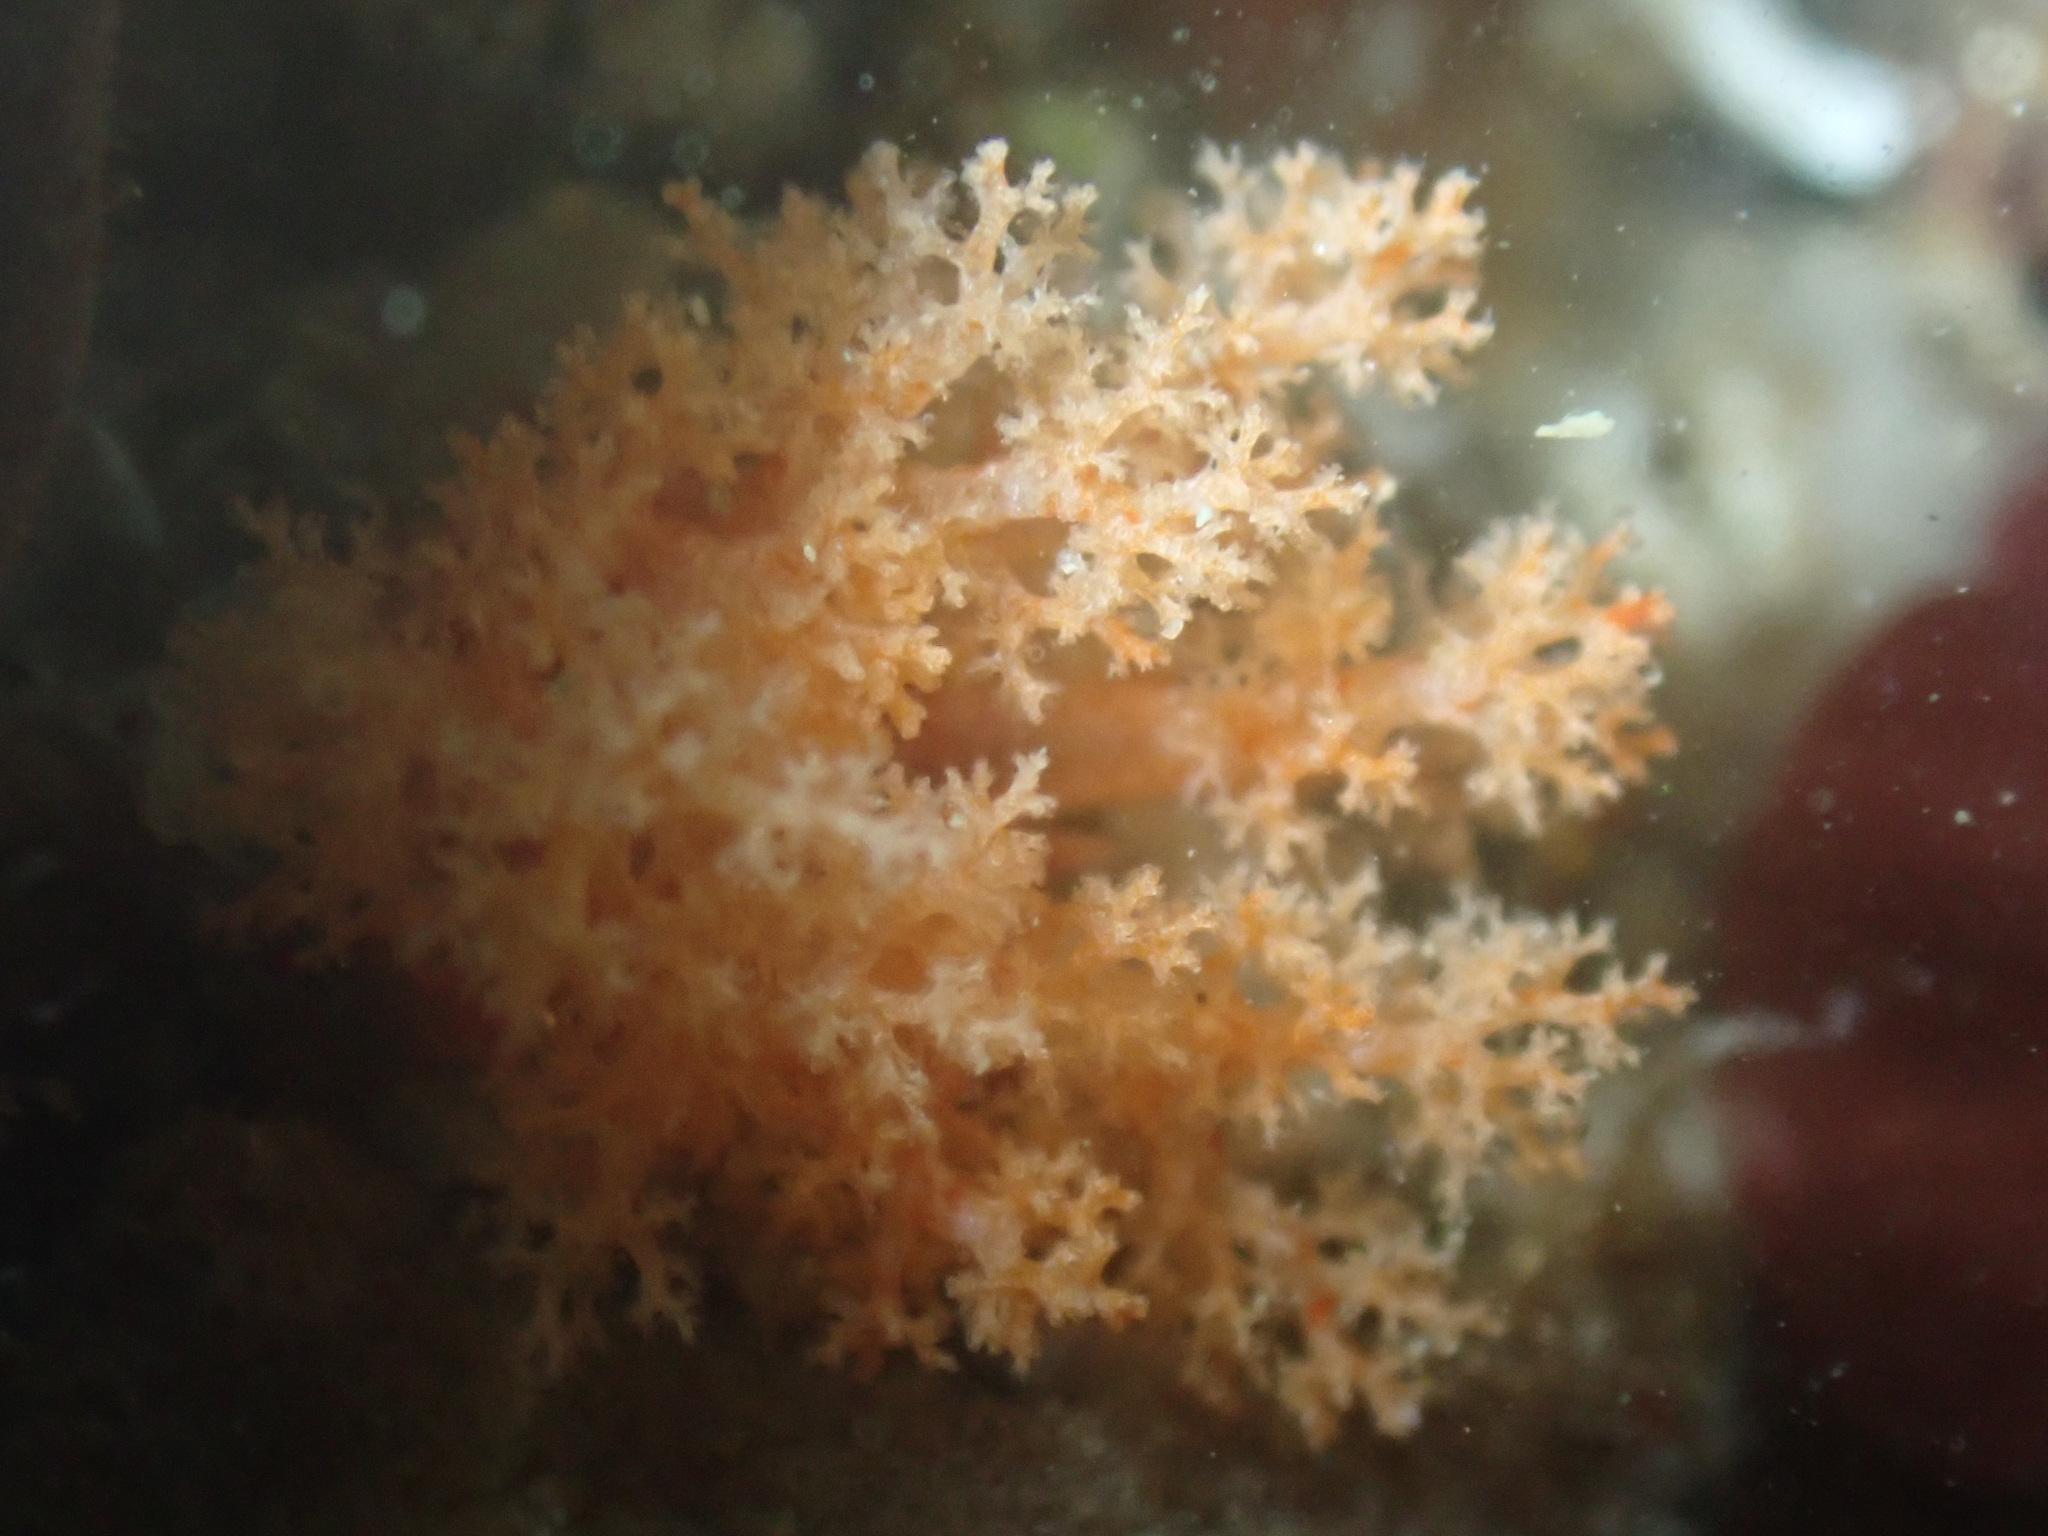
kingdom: Animalia
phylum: Echinodermata
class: Holothuroidea
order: Dendrochirotida
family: Cucumariidae
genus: Cucumaria
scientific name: Cucumaria miniata
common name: Orange sea cucumber
